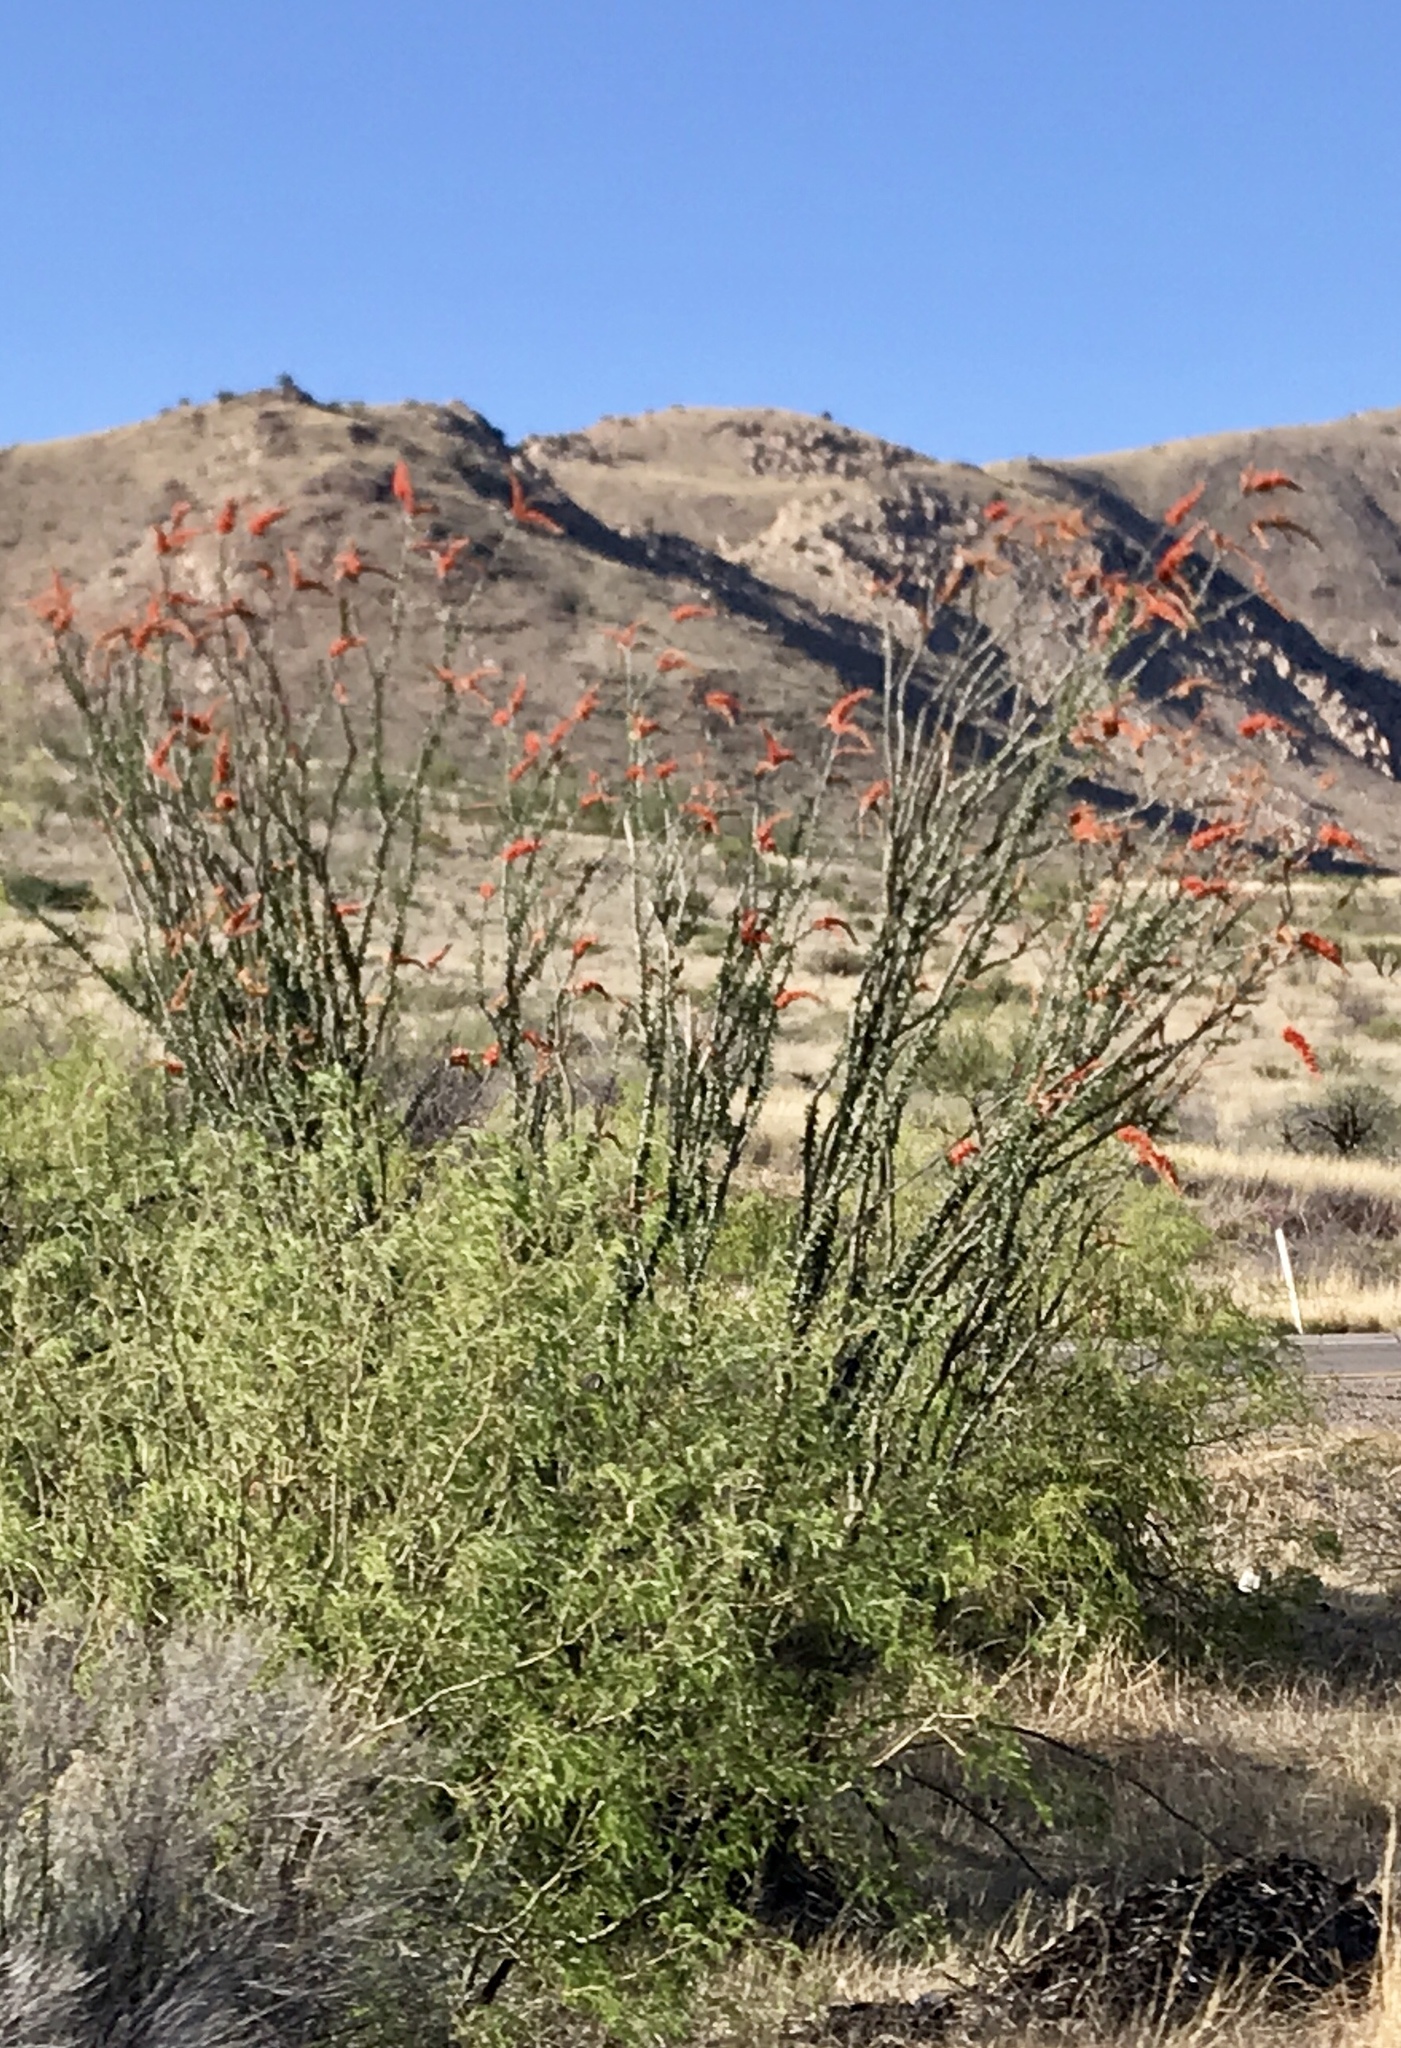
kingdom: Plantae
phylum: Tracheophyta
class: Magnoliopsida
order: Ericales
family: Fouquieriaceae
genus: Fouquieria
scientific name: Fouquieria splendens
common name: Vine-cactus
